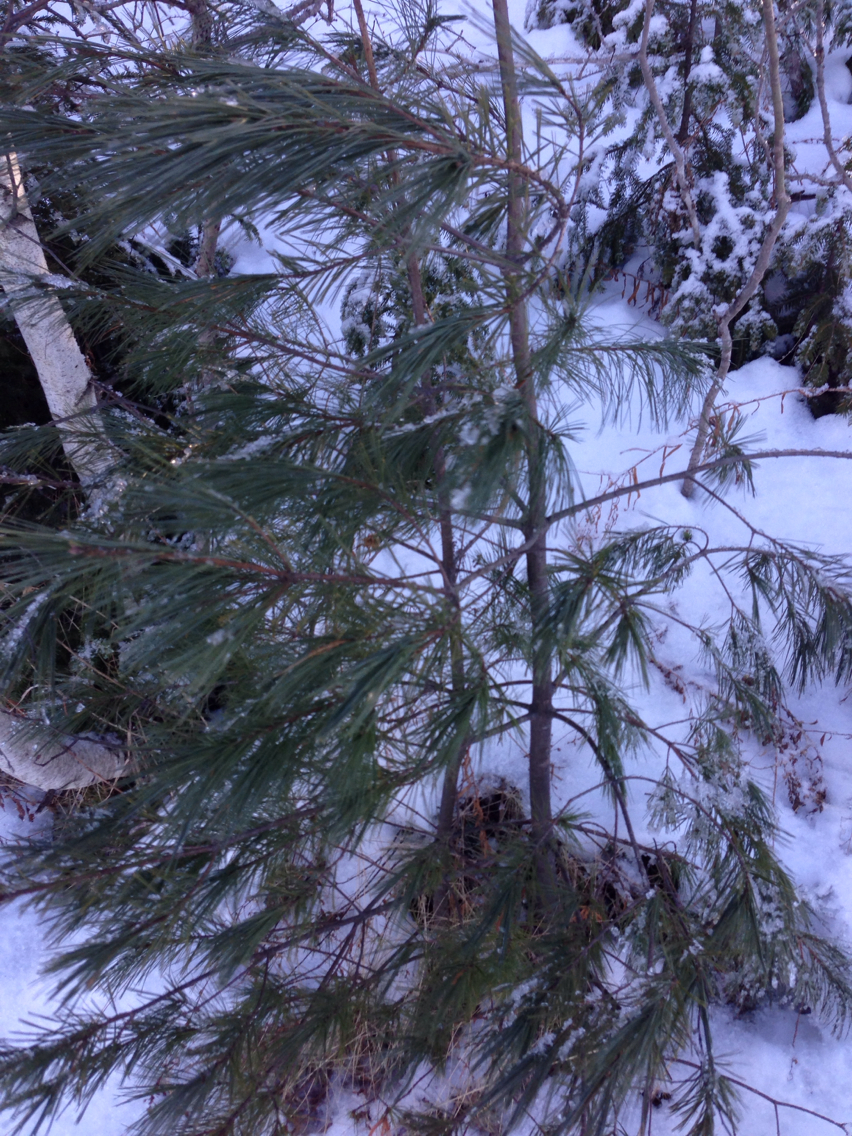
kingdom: Plantae
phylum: Tracheophyta
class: Pinopsida
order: Pinales
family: Pinaceae
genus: Pinus
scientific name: Pinus strobus
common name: Weymouth pine
